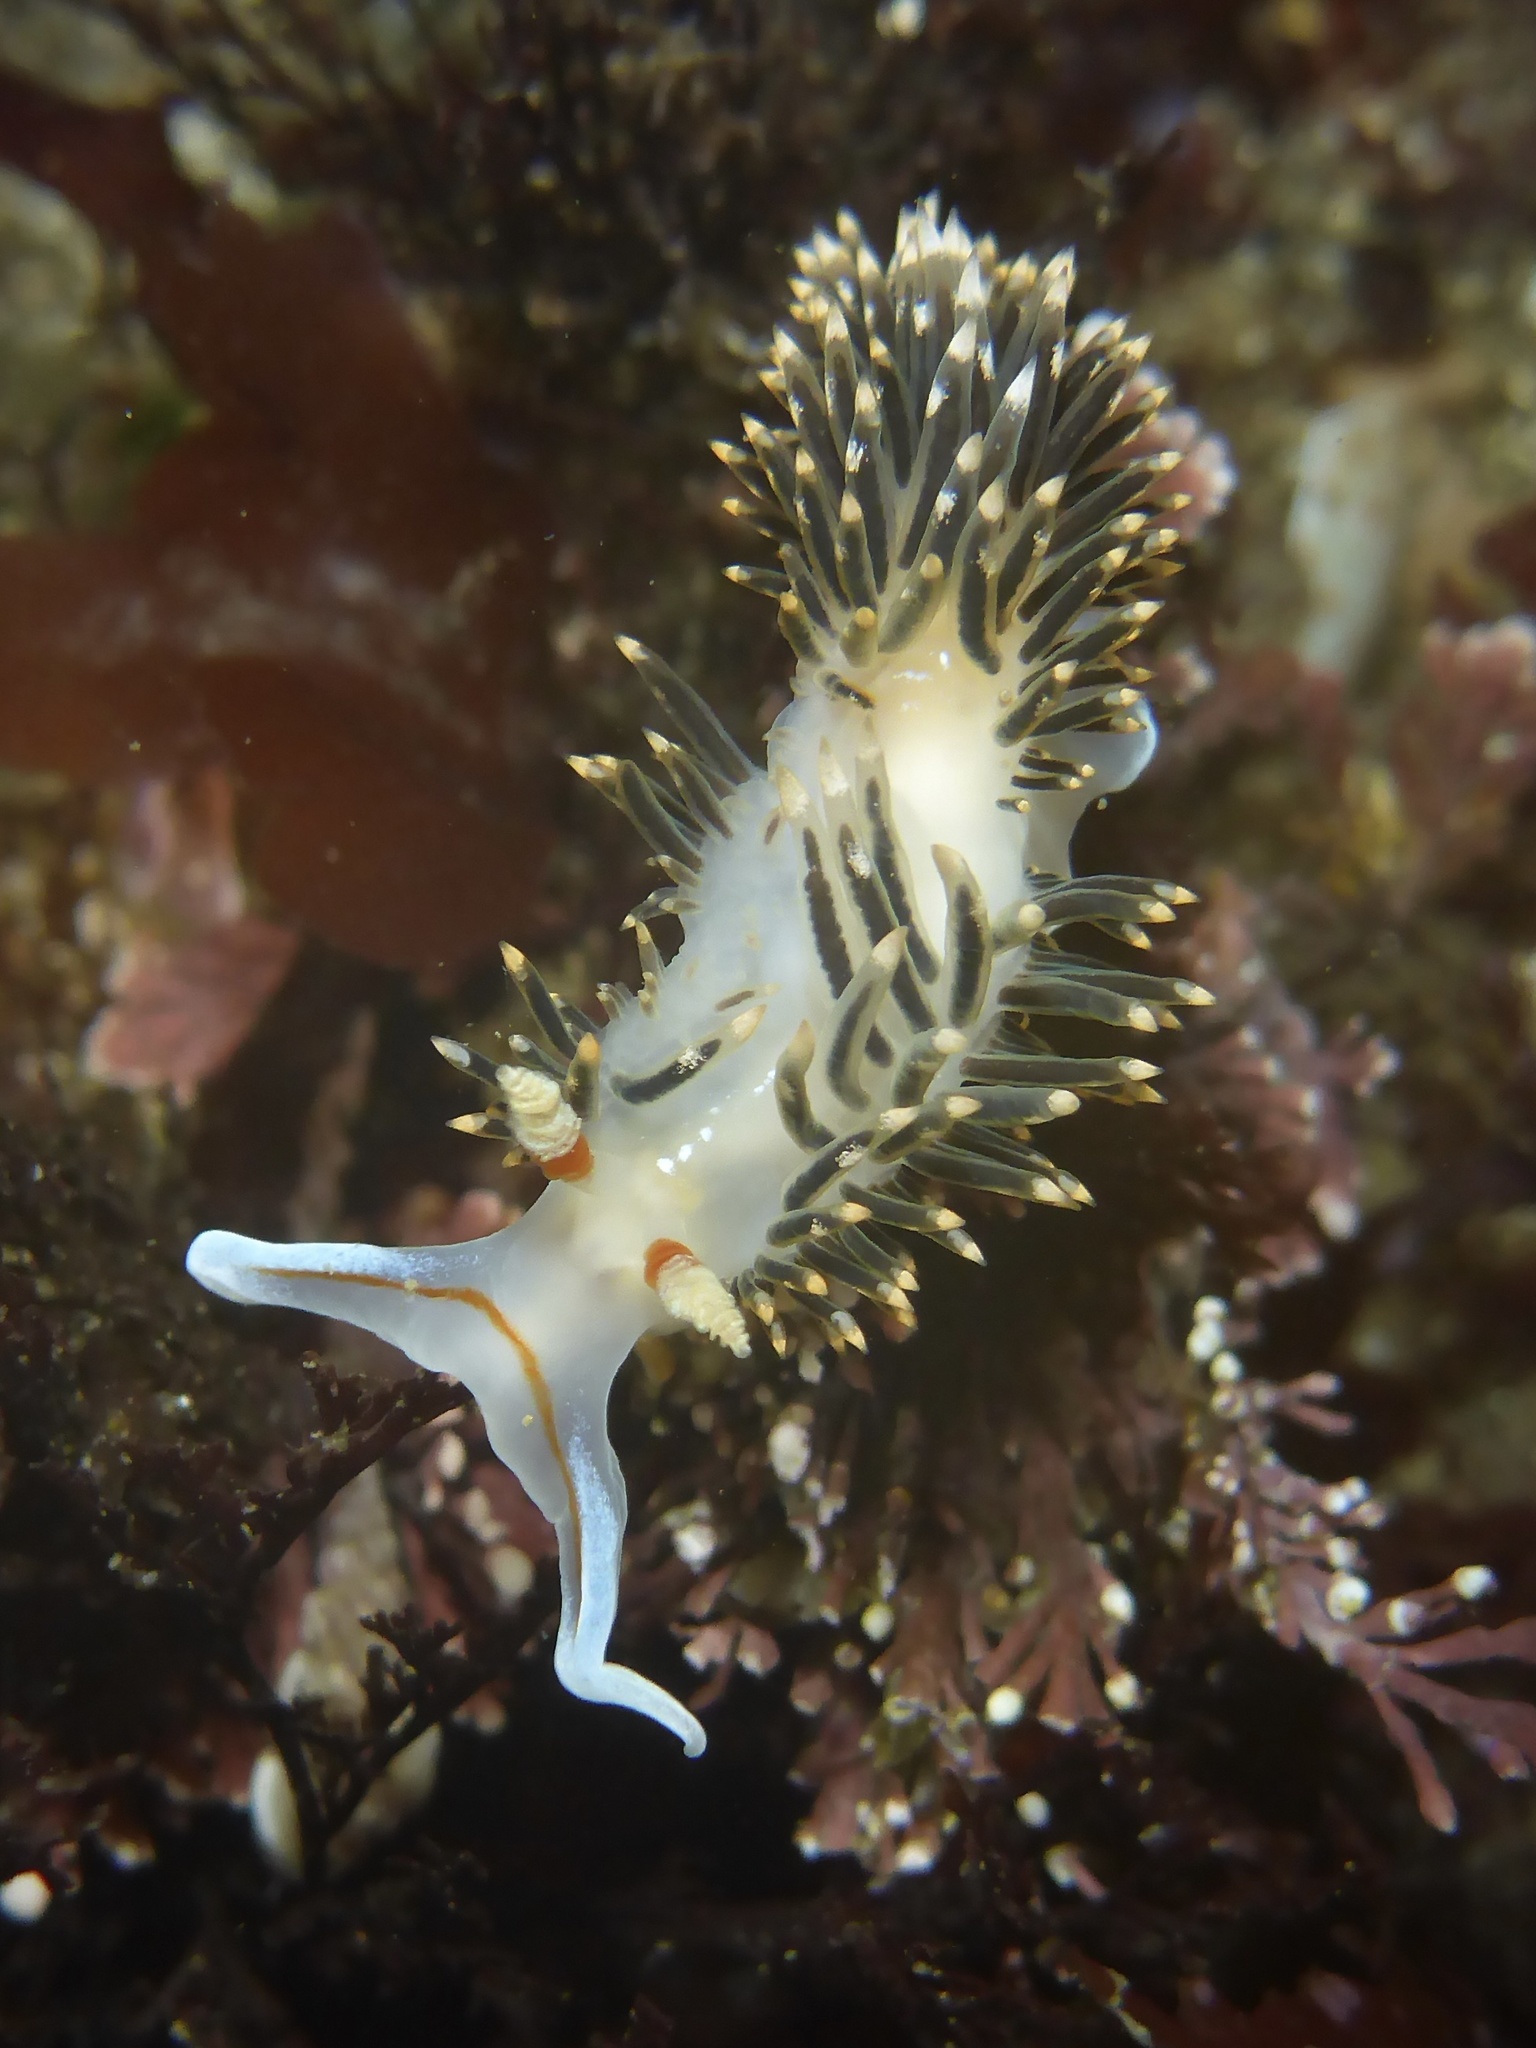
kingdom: Animalia
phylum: Mollusca
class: Gastropoda
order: Nudibranchia
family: Facelinidae
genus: Phidiana
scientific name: Phidiana hiltoni
